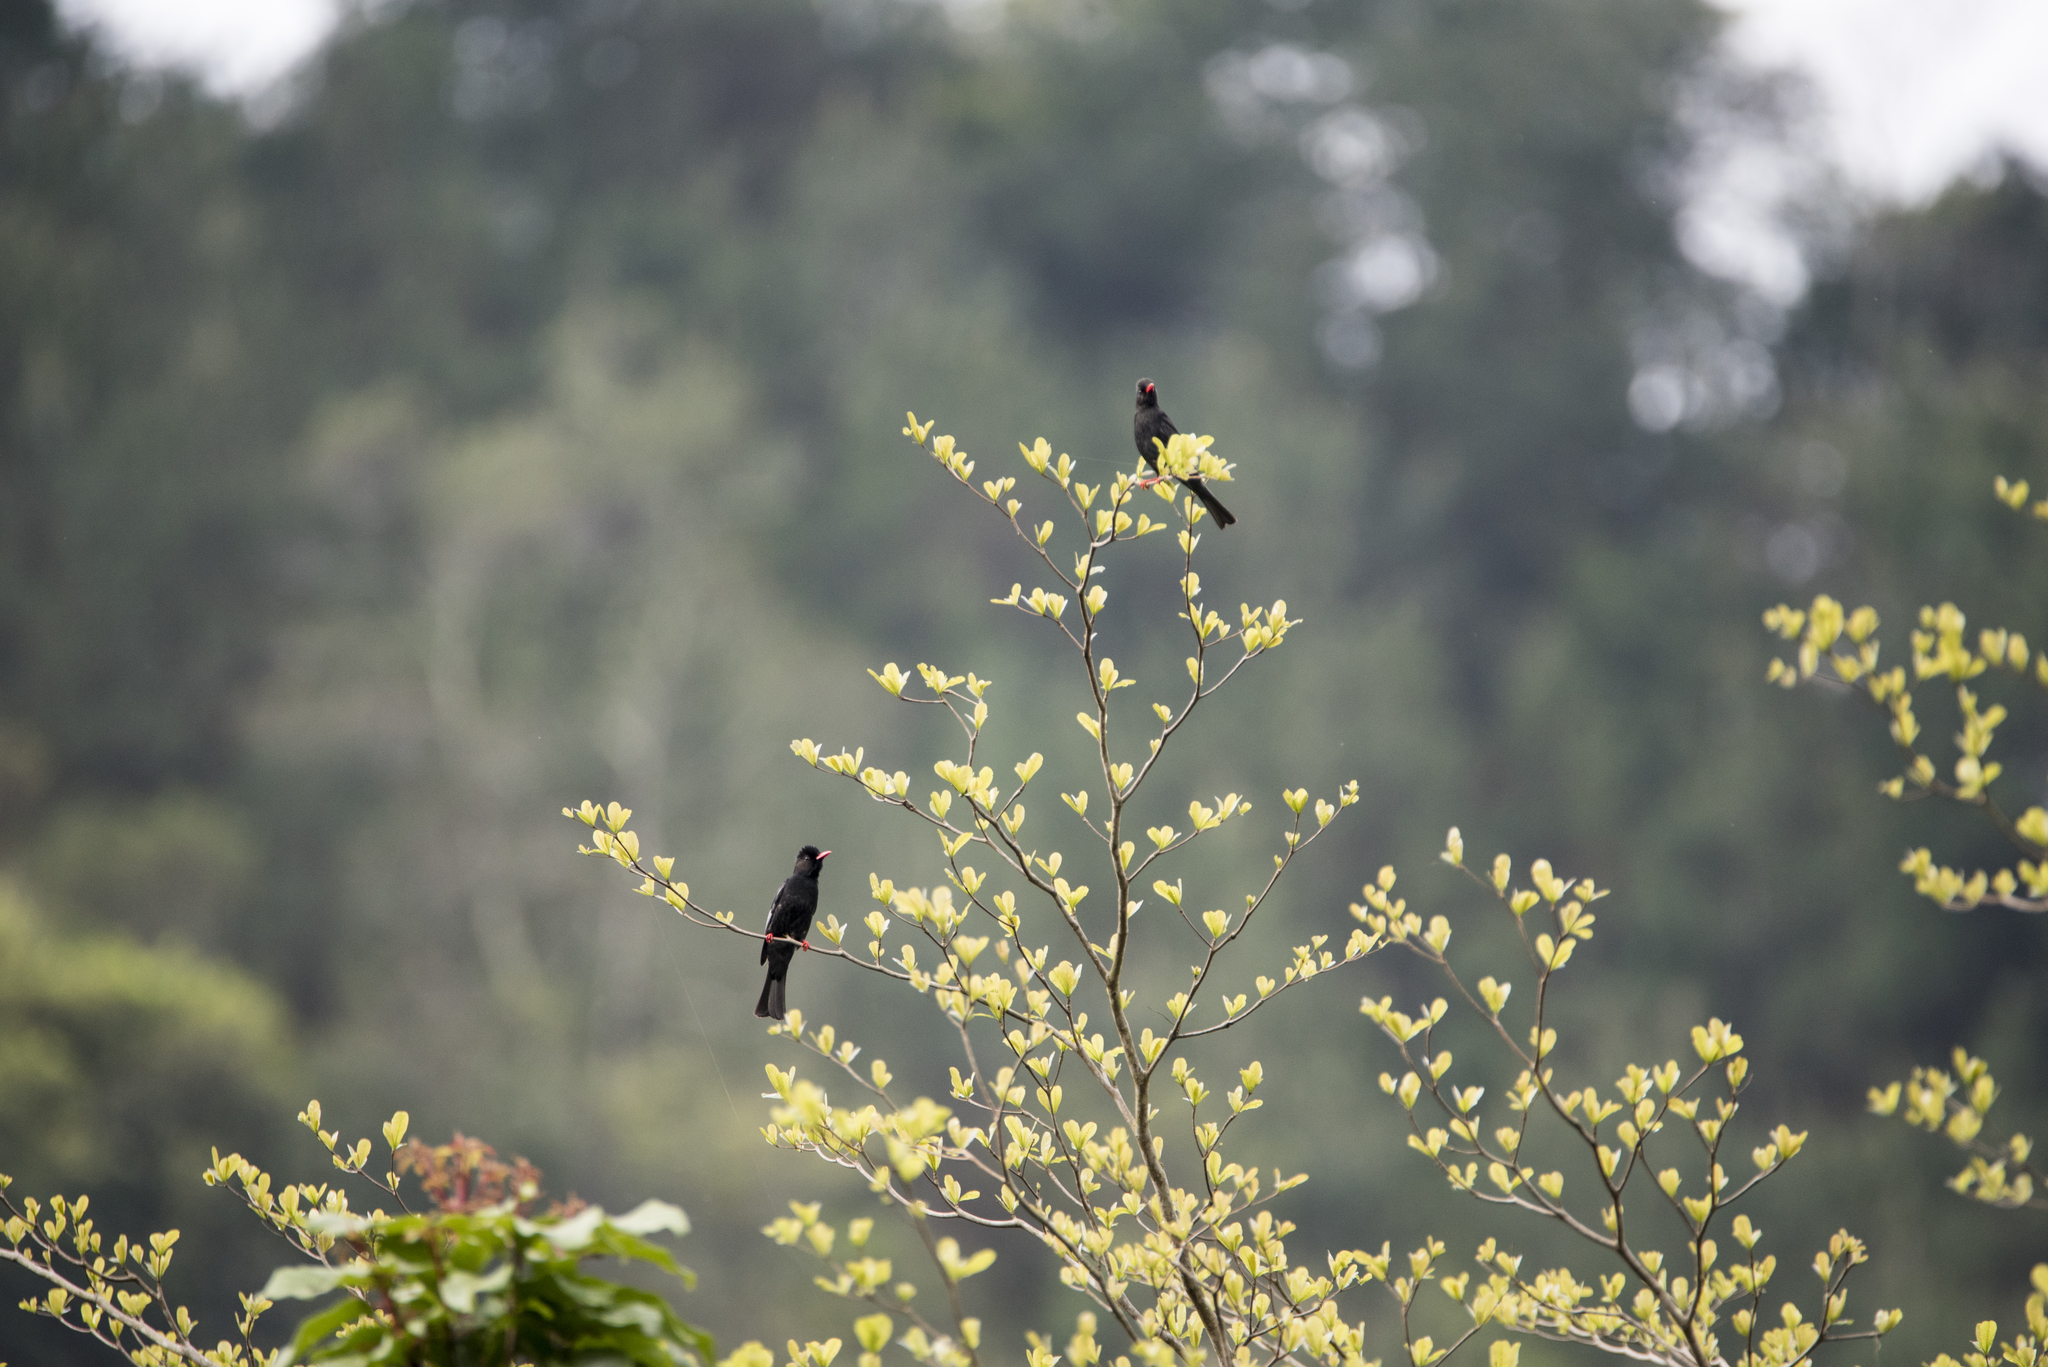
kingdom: Animalia
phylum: Chordata
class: Aves
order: Passeriformes
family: Pycnonotidae
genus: Hypsipetes
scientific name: Hypsipetes leucocephalus
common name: Black bulbul
